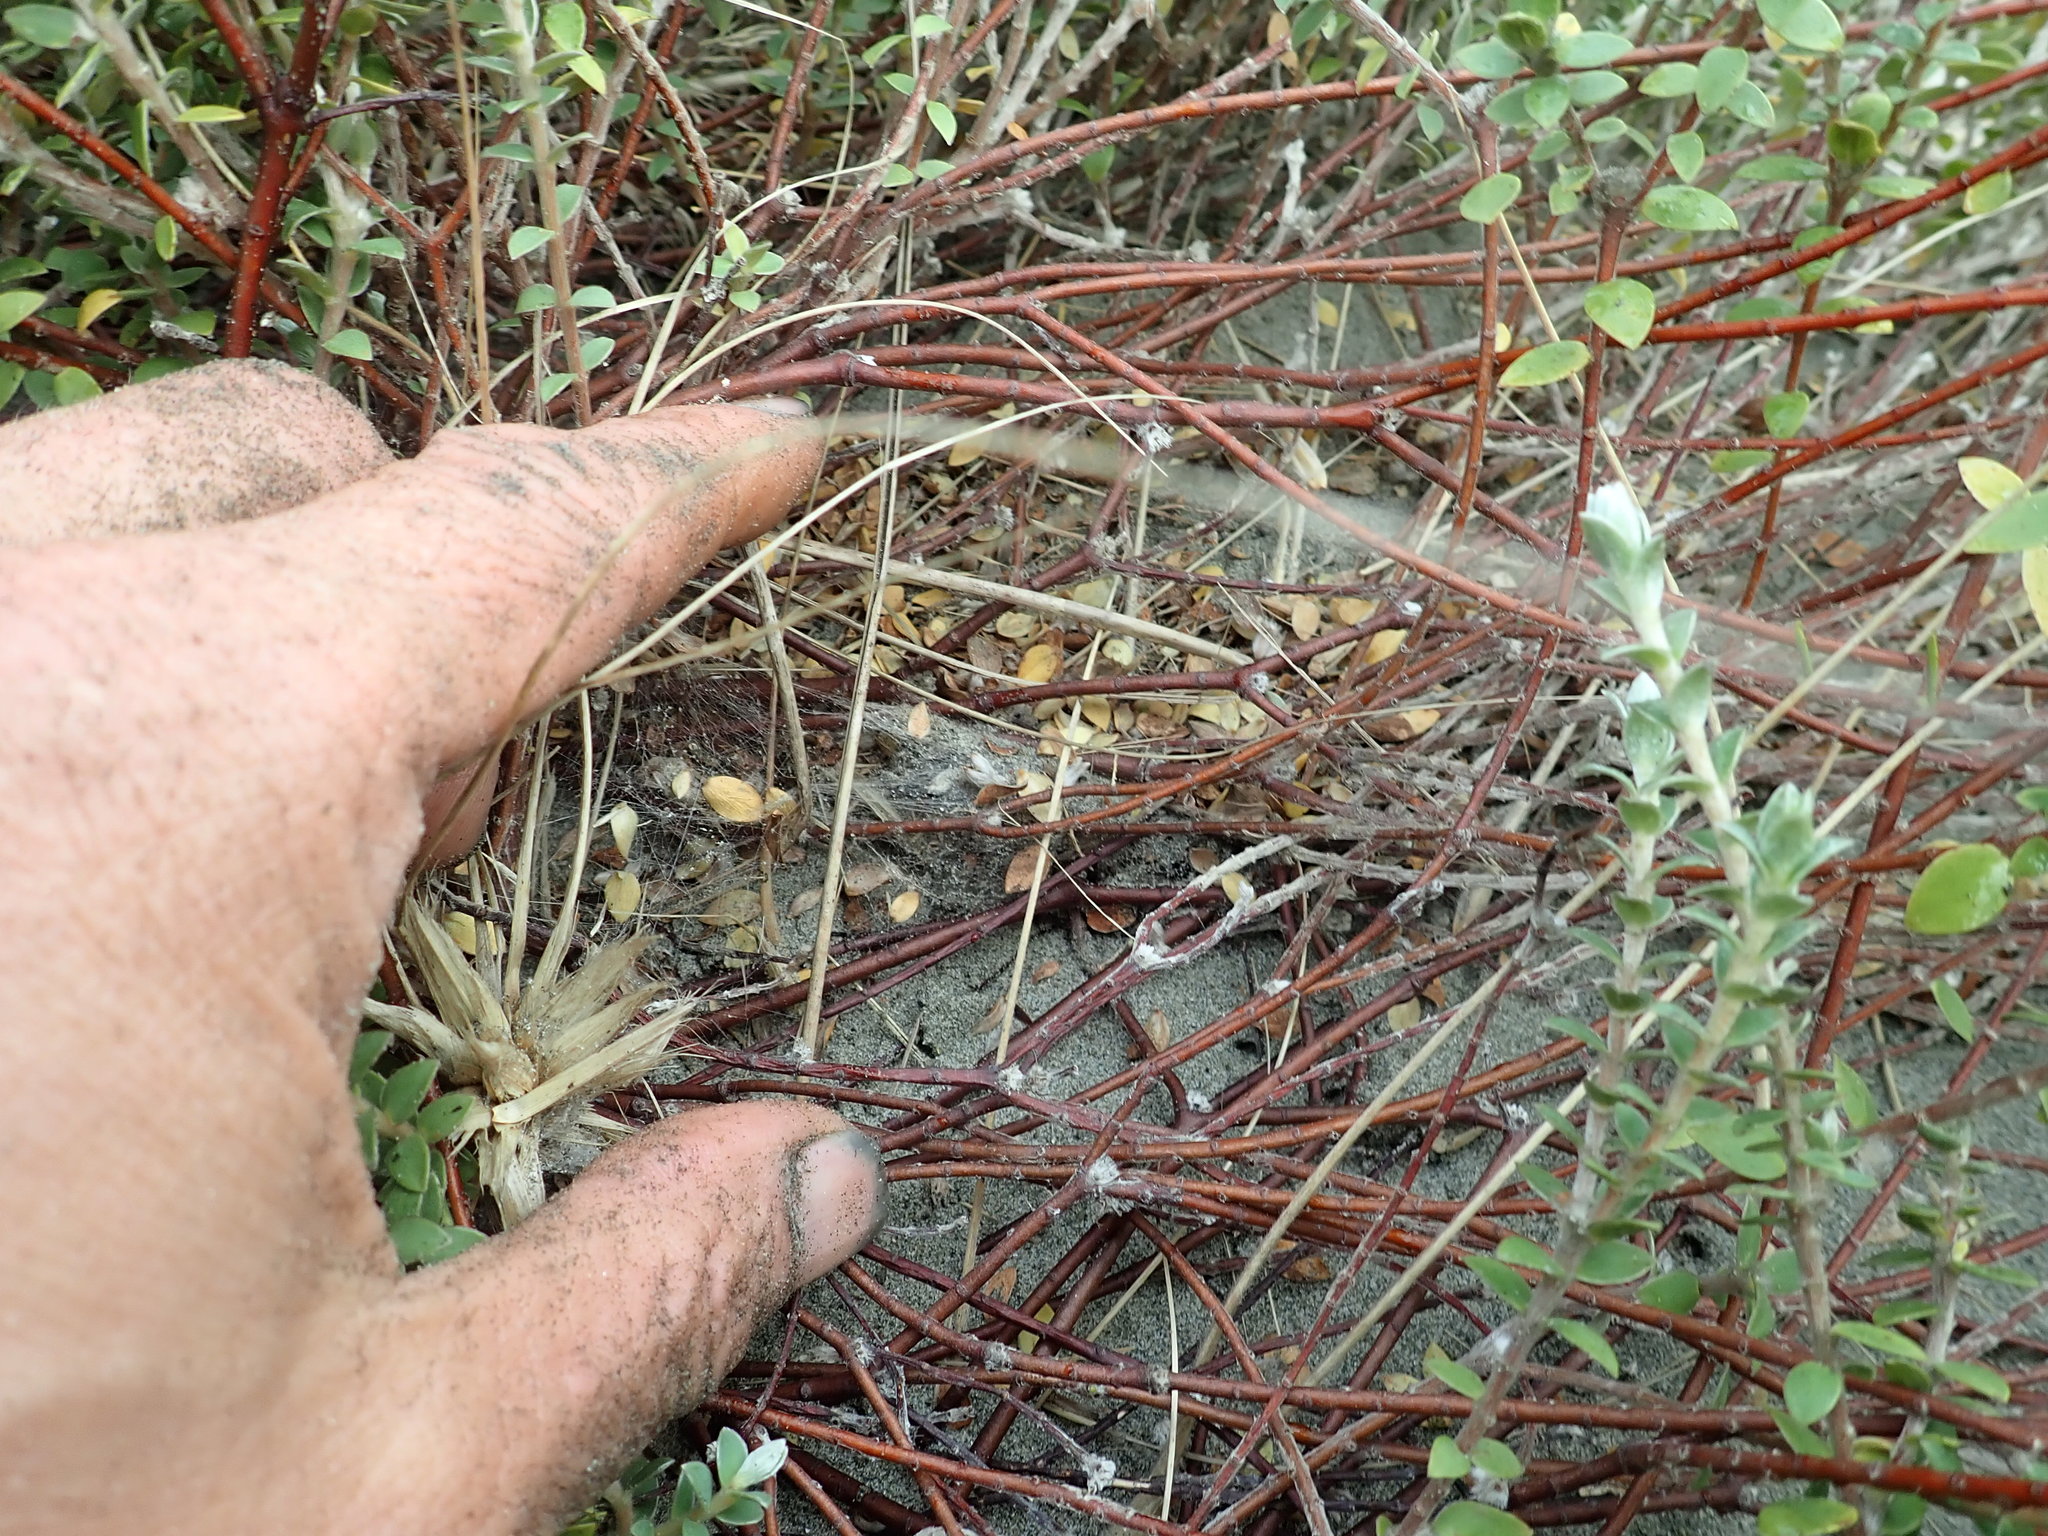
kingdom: Animalia
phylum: Arthropoda
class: Arachnida
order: Araneae
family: Theridiidae
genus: Latrodectus
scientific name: Latrodectus katipo
